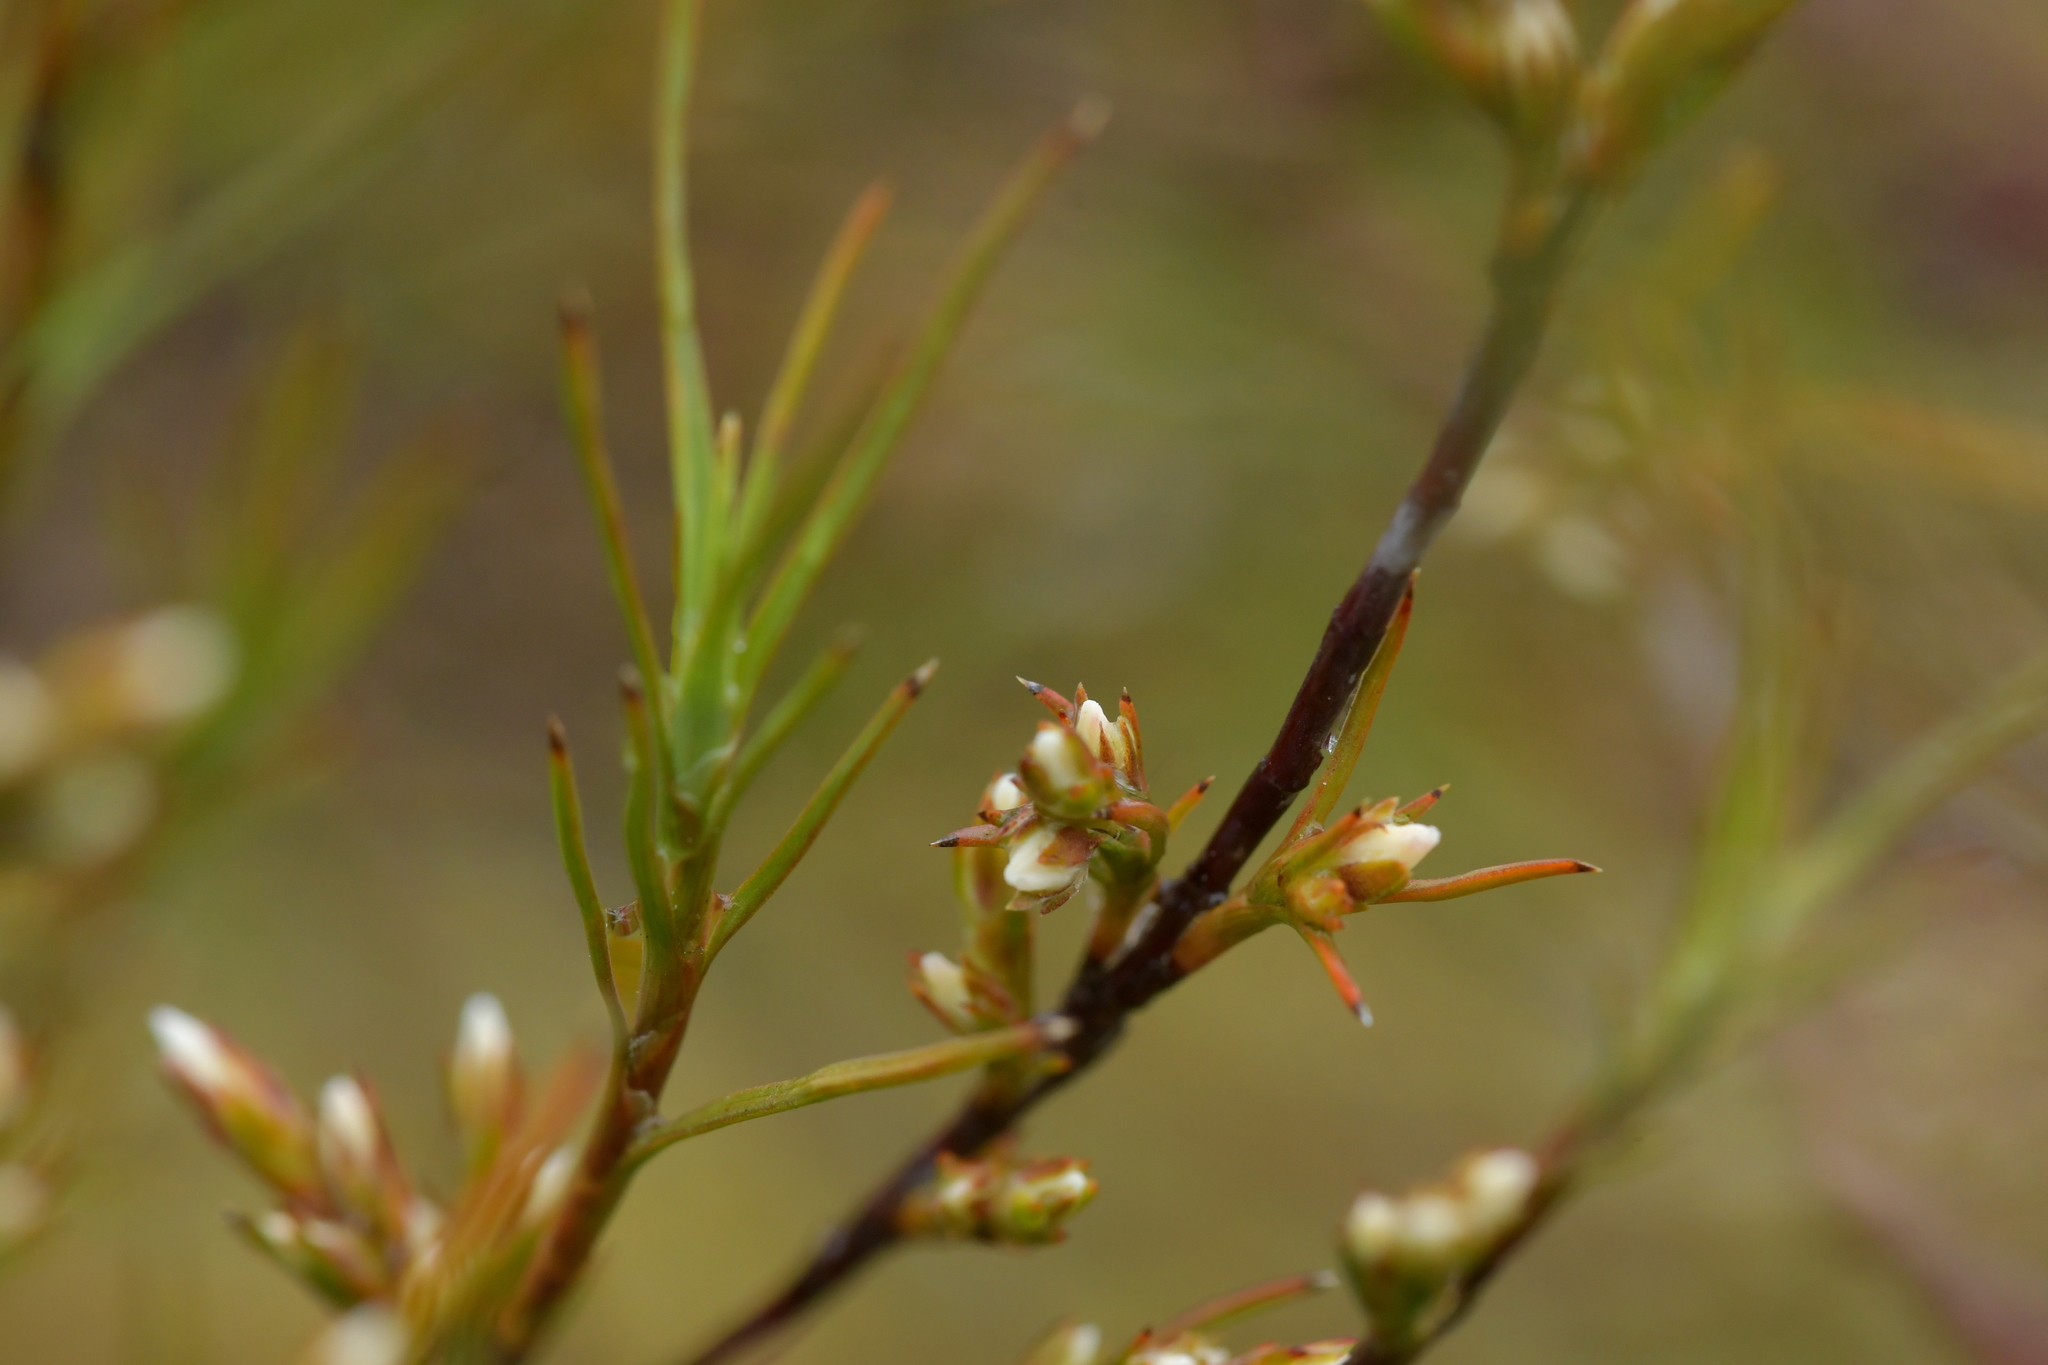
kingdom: Plantae
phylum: Tracheophyta
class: Magnoliopsida
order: Ericales
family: Ericaceae
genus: Dracophyllum
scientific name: Dracophyllum subulatum
